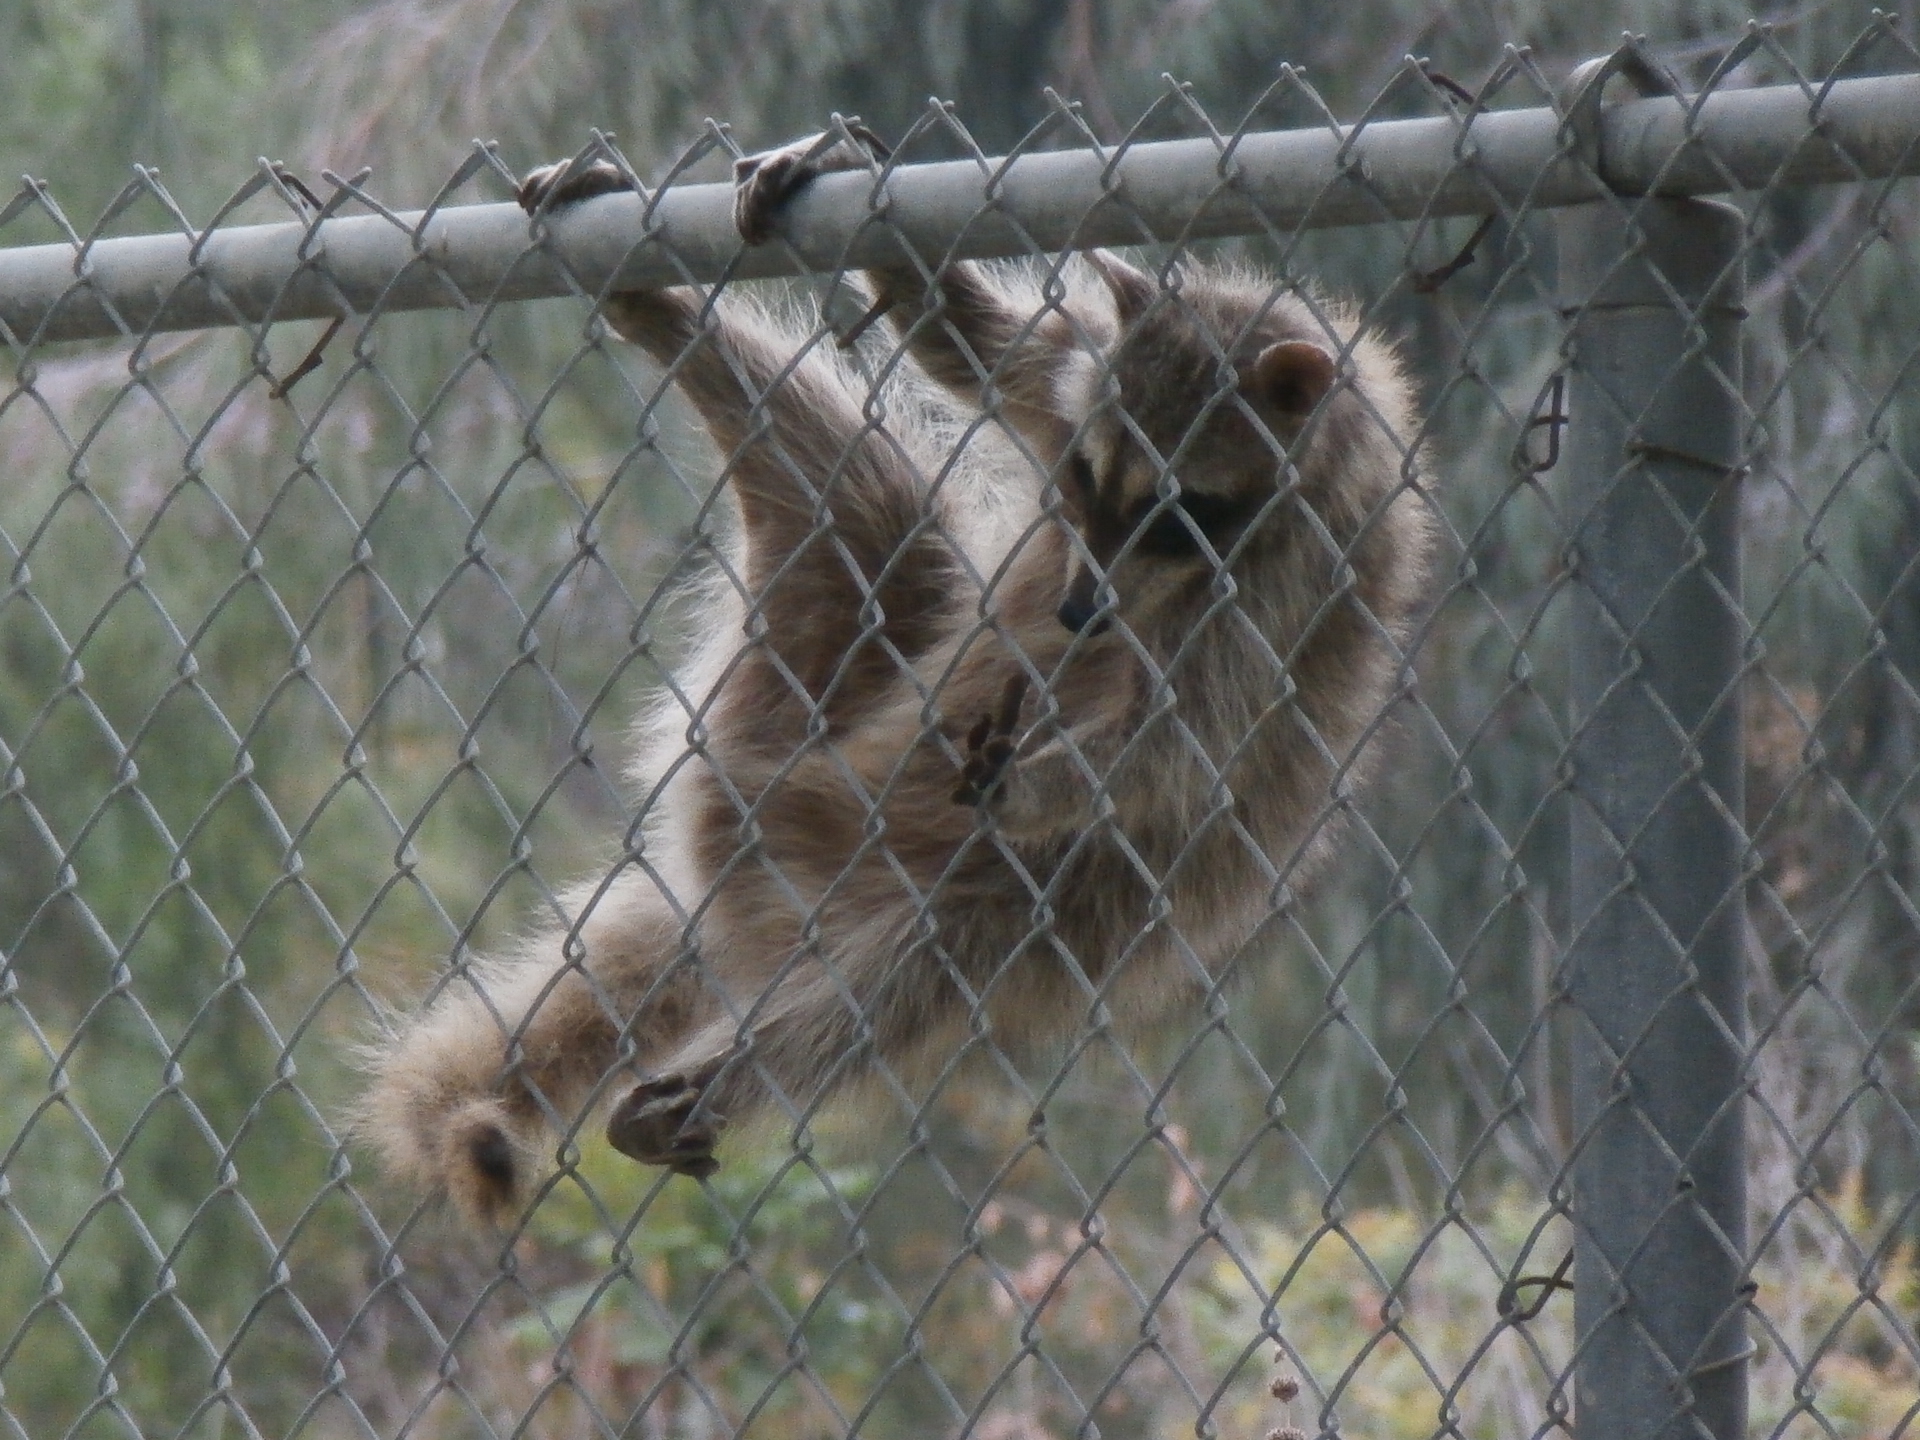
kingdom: Animalia
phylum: Chordata
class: Mammalia
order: Carnivora
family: Procyonidae
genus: Procyon
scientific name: Procyon lotor
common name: Raccoon
